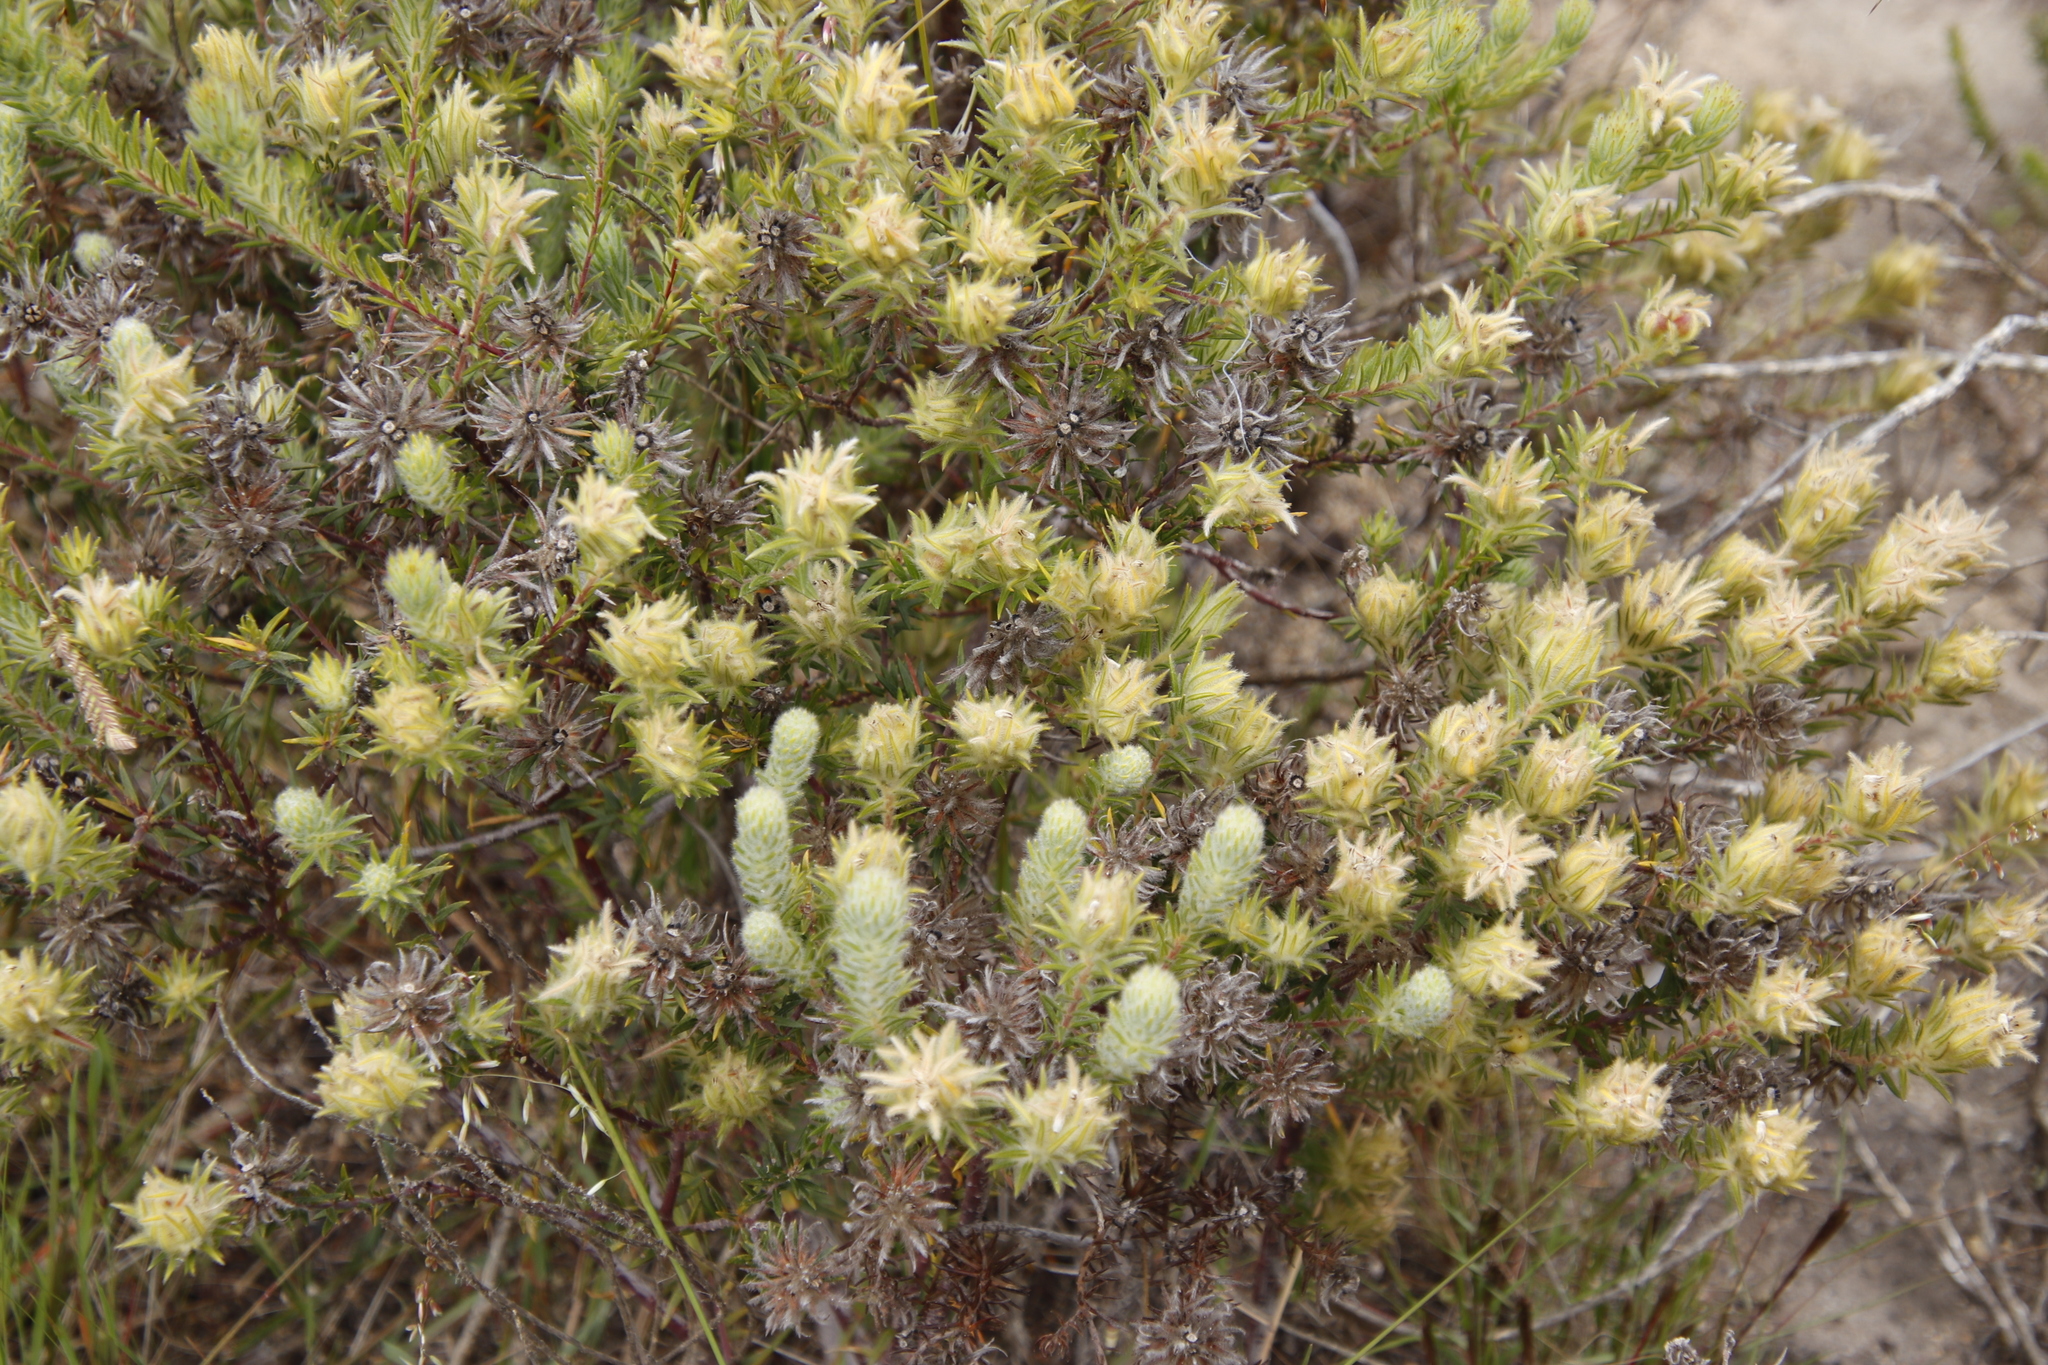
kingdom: Plantae
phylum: Tracheophyta
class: Magnoliopsida
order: Rosales
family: Rhamnaceae
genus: Phylica
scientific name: Phylica pubescens
